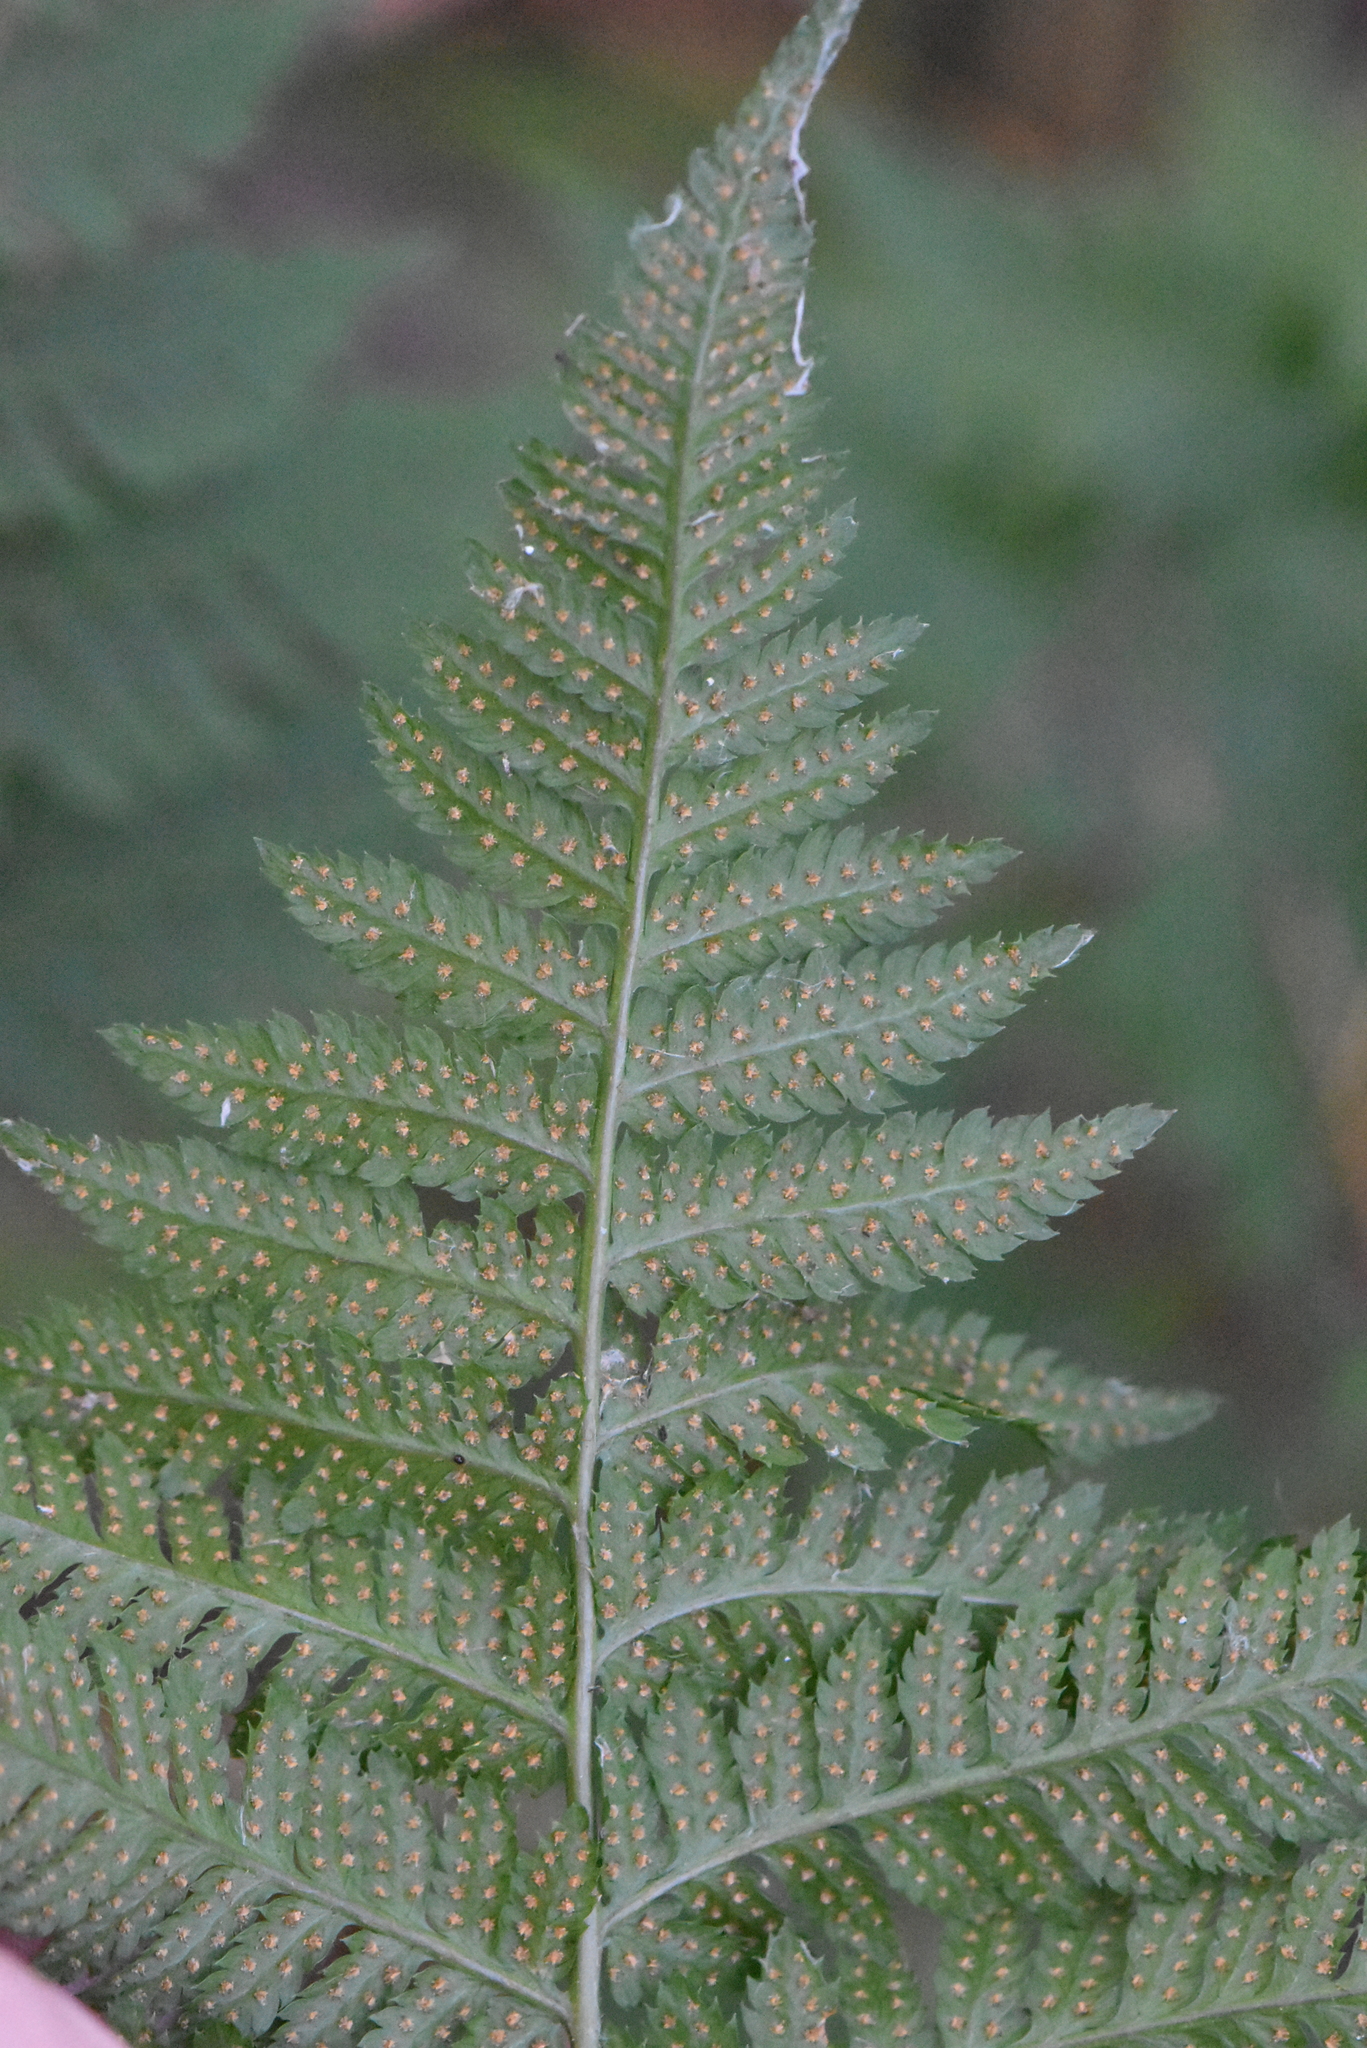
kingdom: Plantae
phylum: Tracheophyta
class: Polypodiopsida
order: Polypodiales
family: Dryopteridaceae
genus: Dryopteris
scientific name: Dryopteris carthusiana
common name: Narrow buckler-fern
